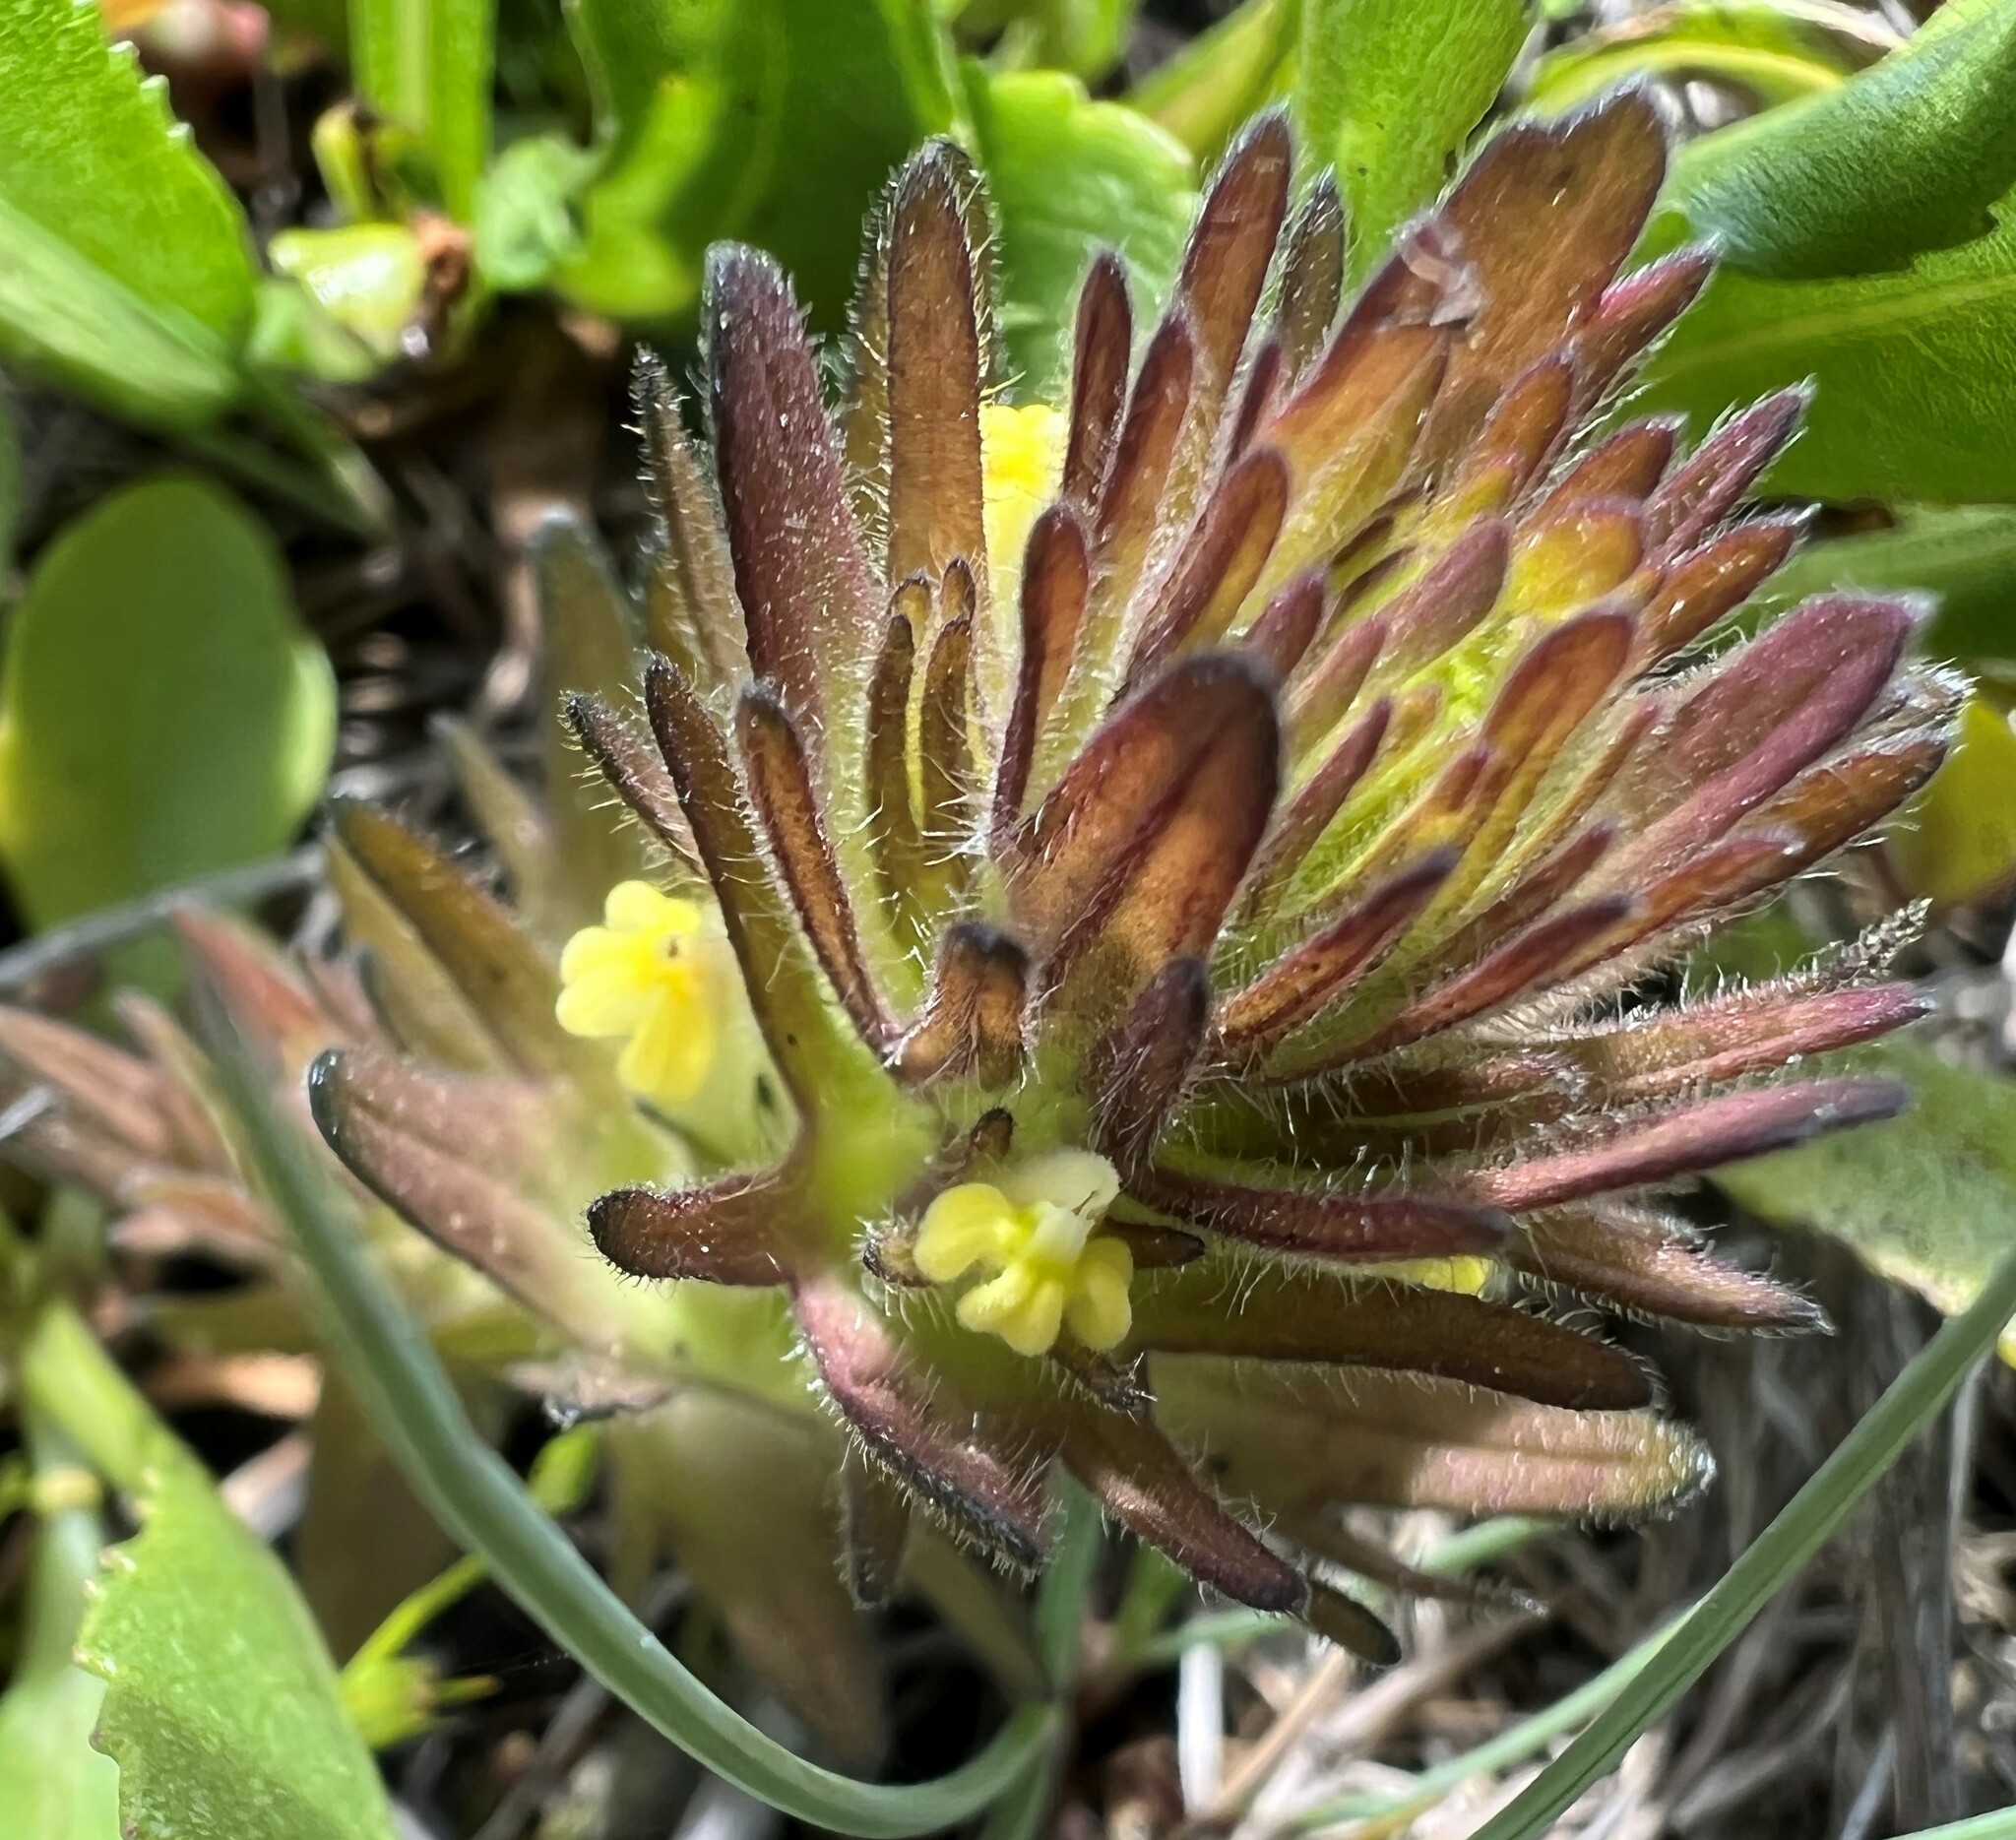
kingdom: Plantae
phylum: Tracheophyta
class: Magnoliopsida
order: Lamiales
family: Orobanchaceae
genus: Castilleja
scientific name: Castilleja victoriae
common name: Victoria paintbrush
